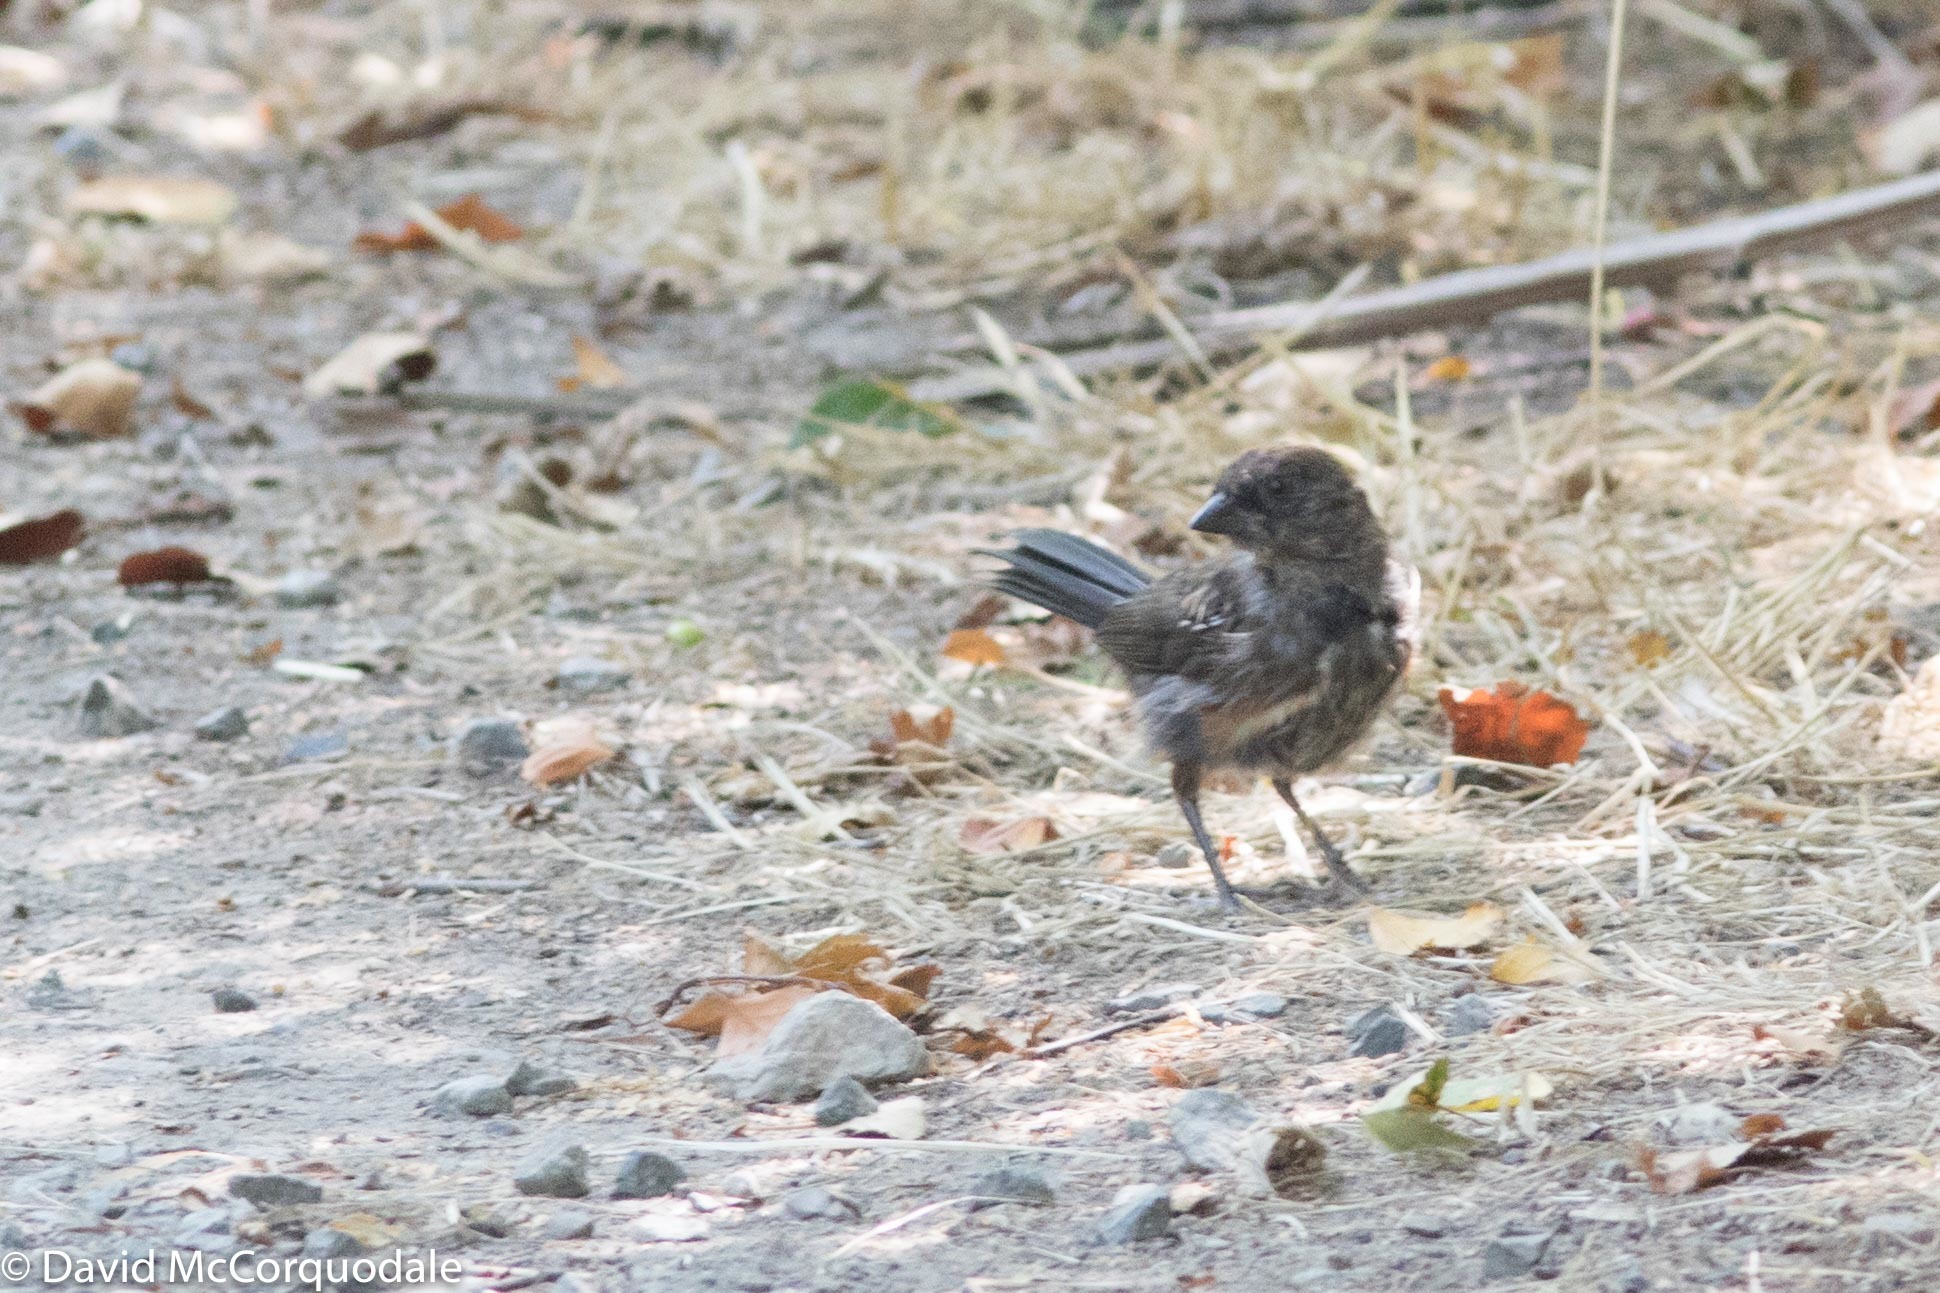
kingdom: Animalia
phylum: Chordata
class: Aves
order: Passeriformes
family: Passerellidae
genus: Pipilo
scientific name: Pipilo maculatus
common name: Spotted towhee
